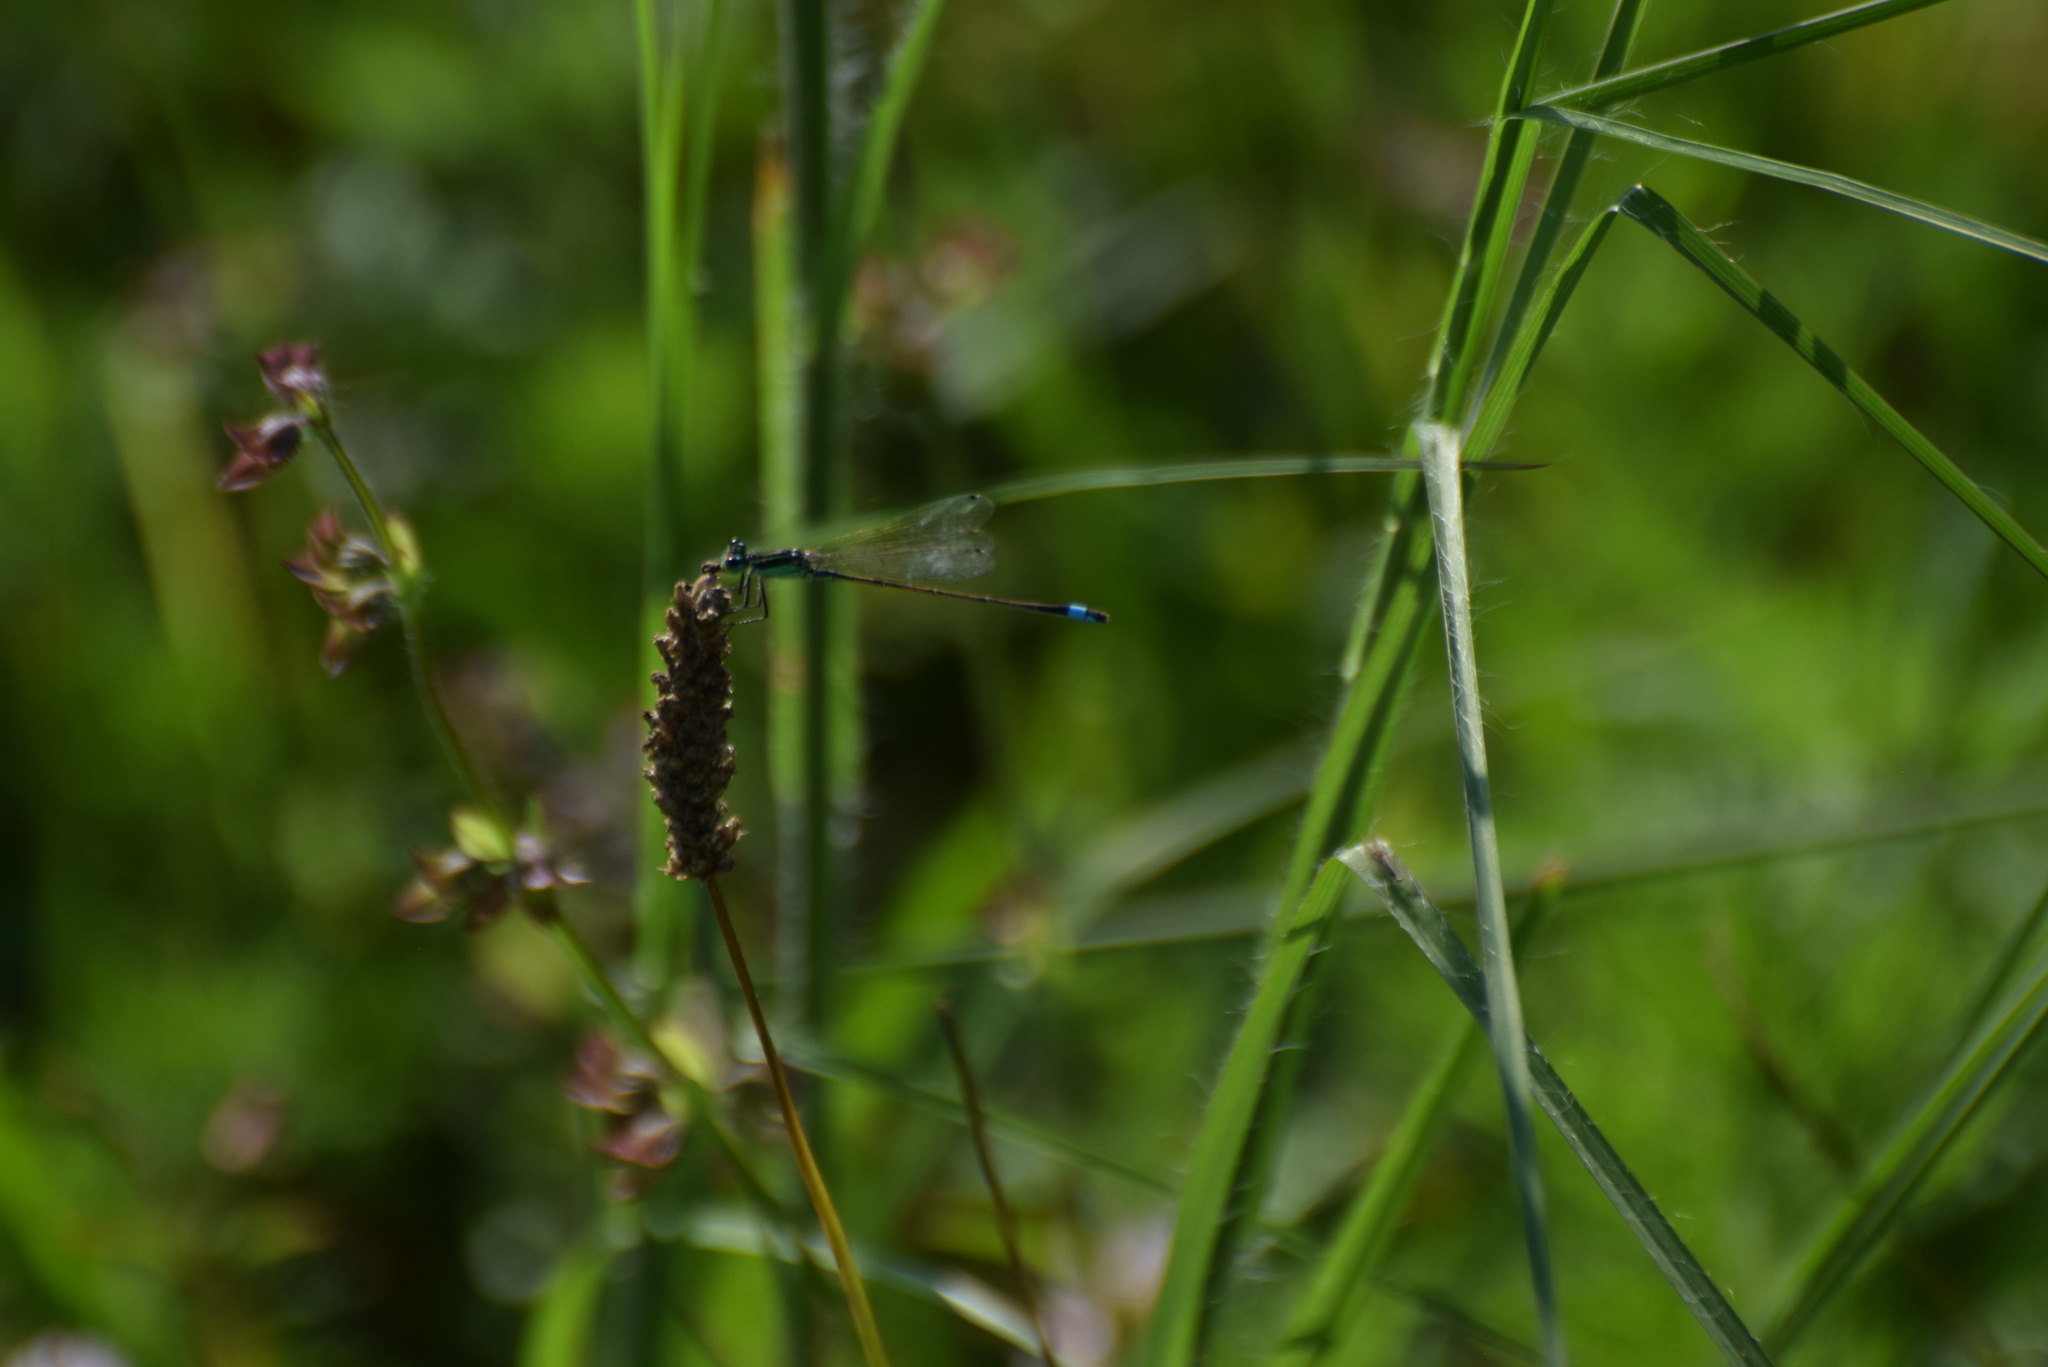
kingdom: Animalia
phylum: Arthropoda
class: Insecta
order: Odonata
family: Coenagrionidae
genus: Ischnura
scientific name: Ischnura ramburii
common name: Rambur's forktail
